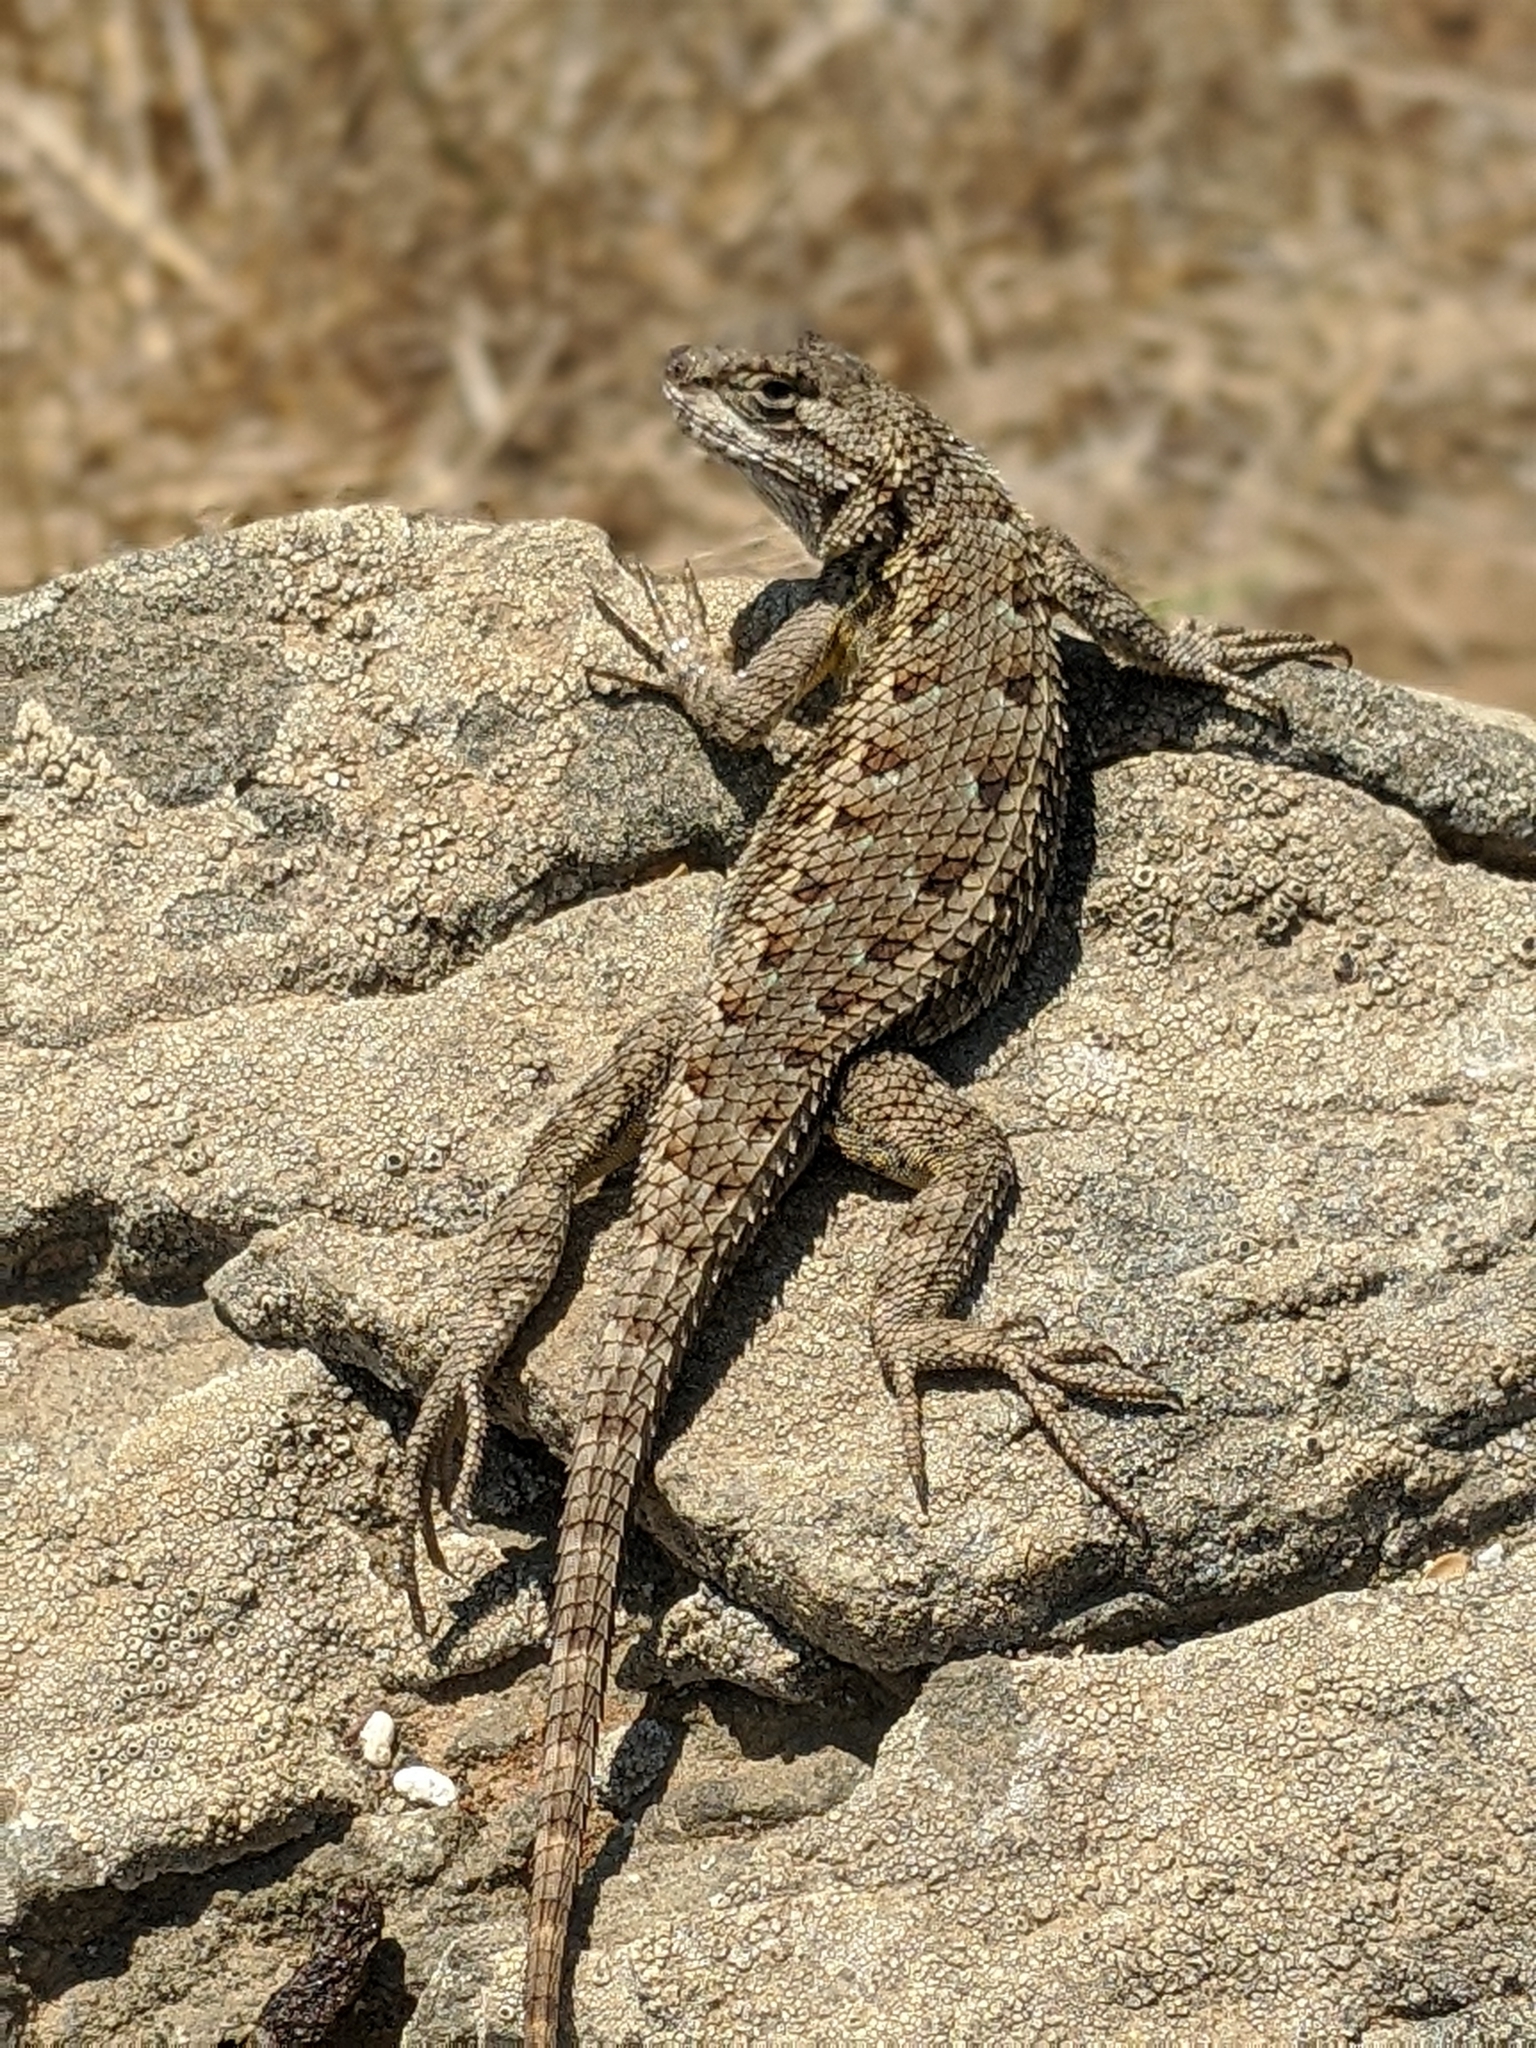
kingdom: Animalia
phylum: Chordata
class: Squamata
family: Phrynosomatidae
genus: Sceloporus
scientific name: Sceloporus occidentalis
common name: Western fence lizard
